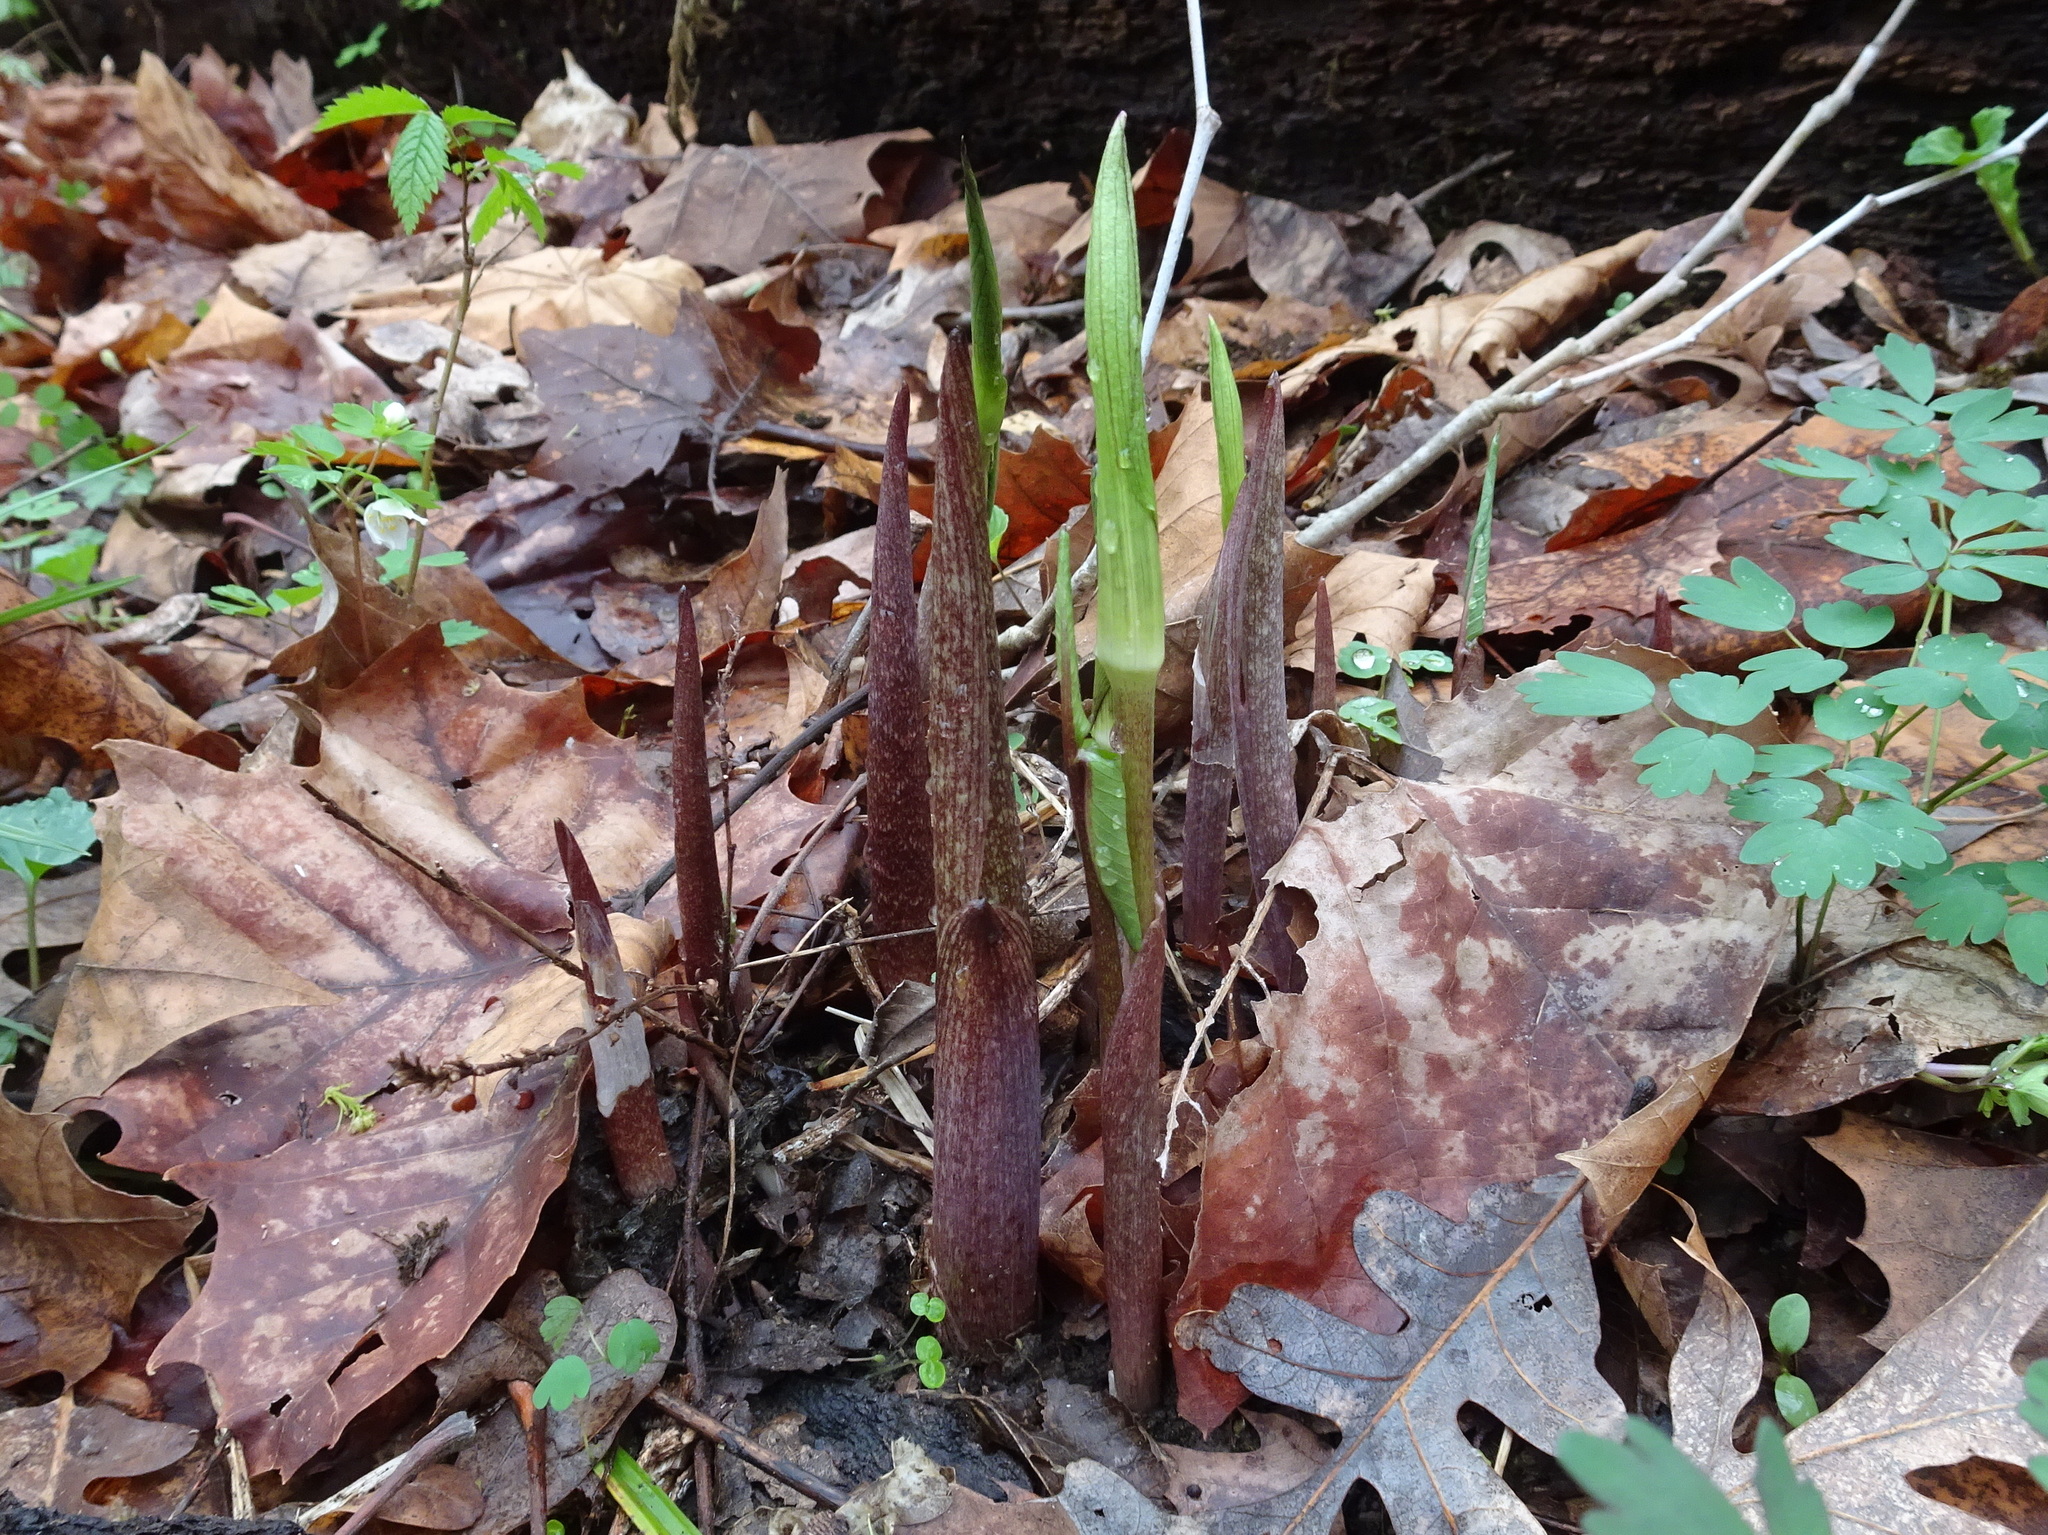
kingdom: Plantae
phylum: Tracheophyta
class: Liliopsida
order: Alismatales
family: Araceae
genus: Arisaema
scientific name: Arisaema triphyllum
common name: Jack-in-the-pulpit
